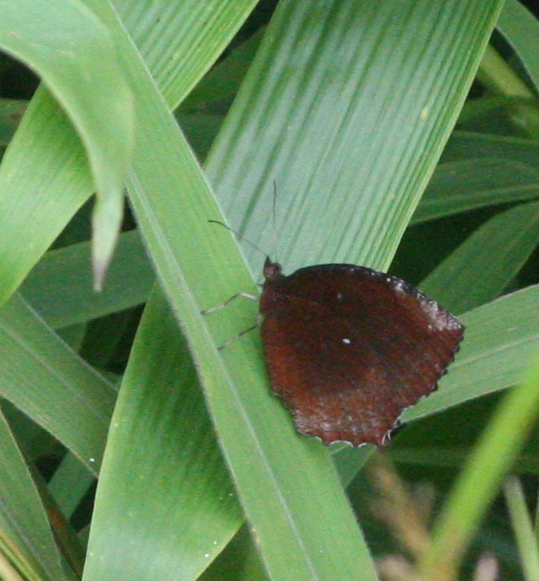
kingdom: Animalia
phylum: Arthropoda
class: Insecta
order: Lepidoptera
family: Nymphalidae
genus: Elymnias
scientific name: Elymnias hypermnestra
